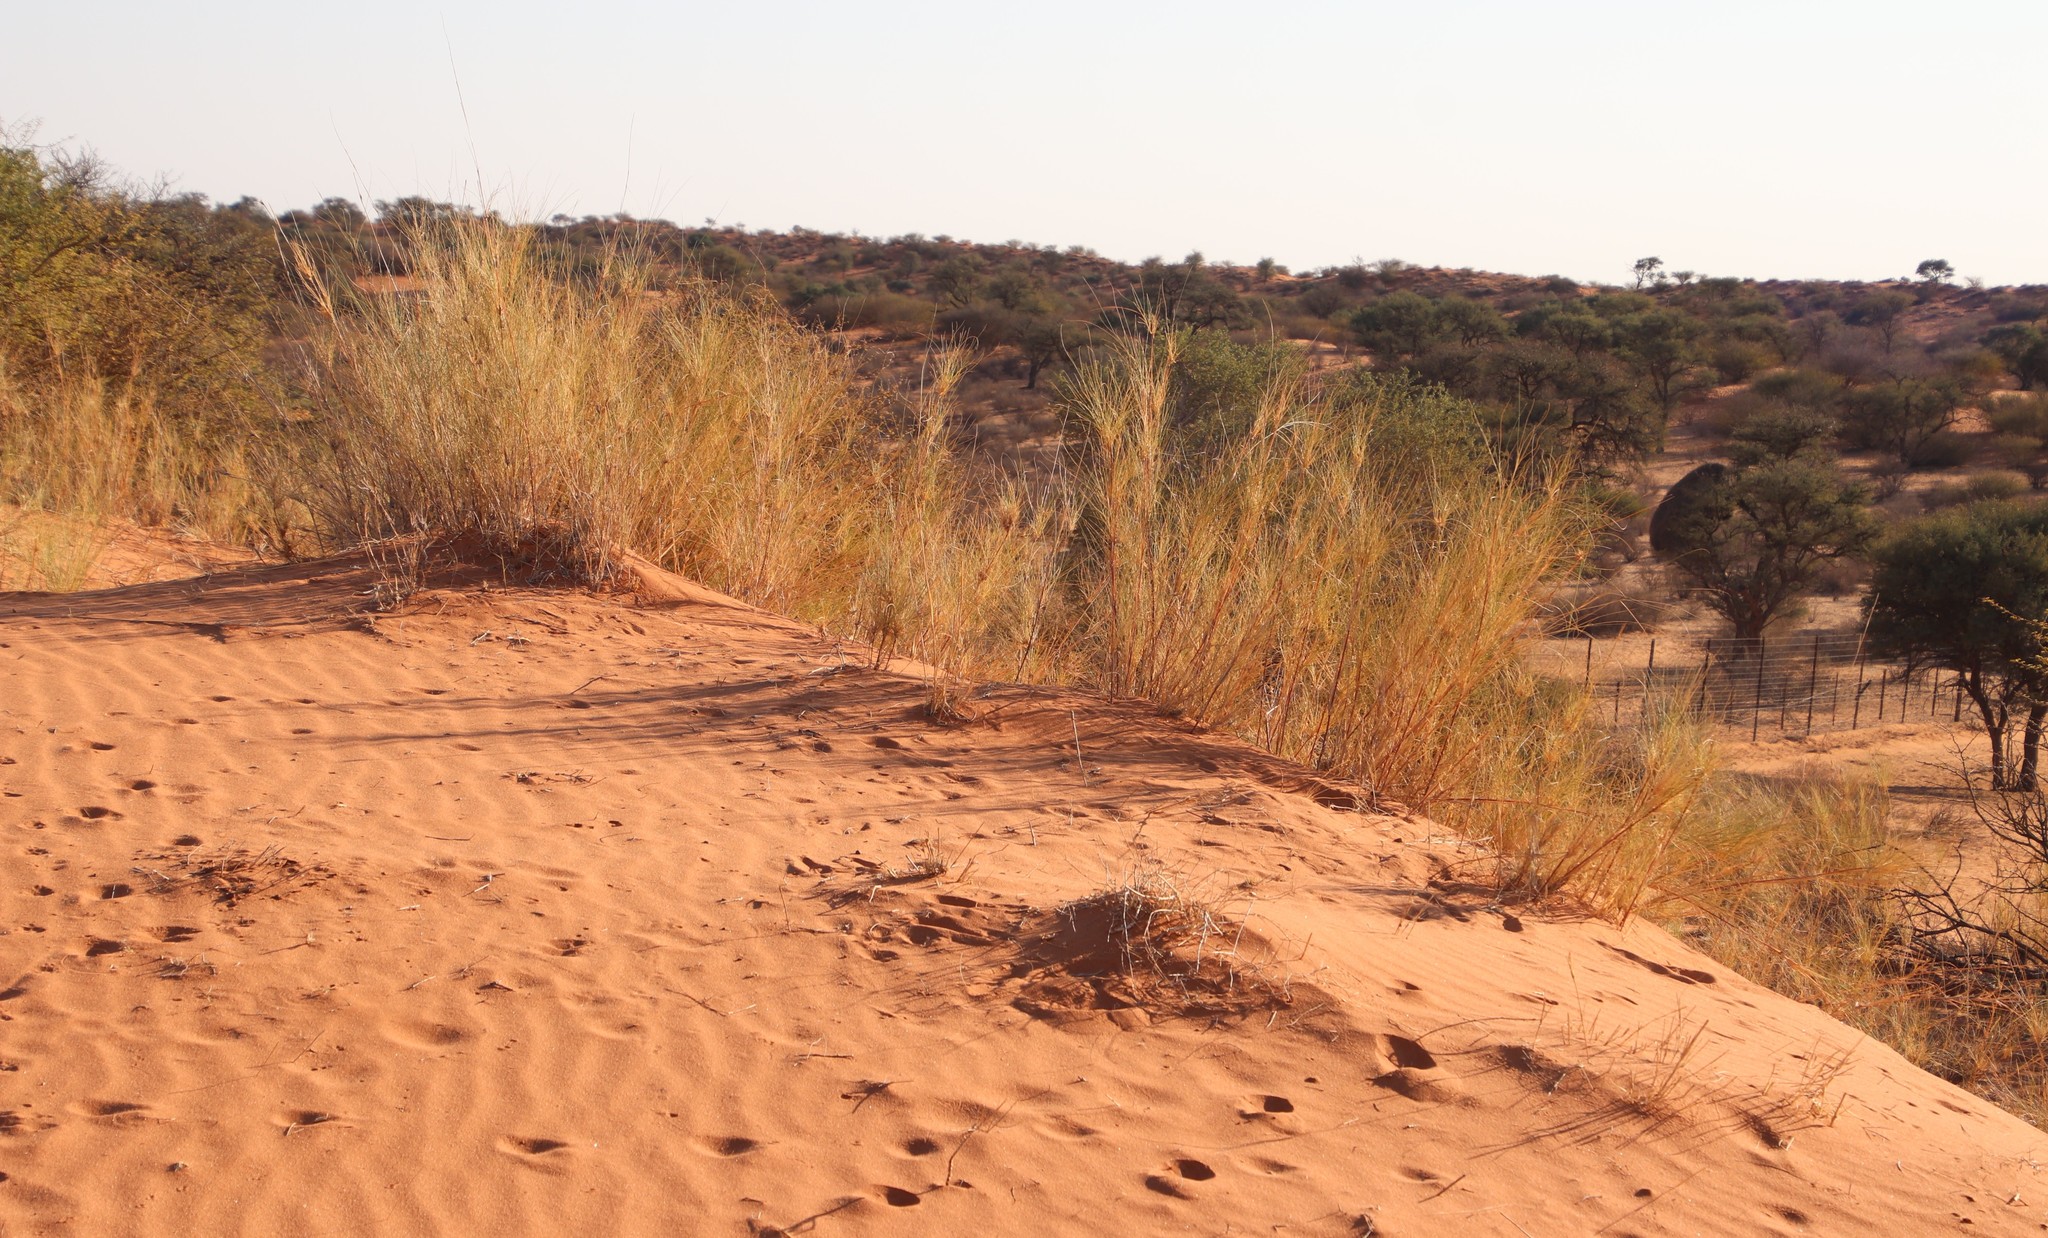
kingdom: Plantae
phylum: Tracheophyta
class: Liliopsida
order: Poales
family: Poaceae
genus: Stipagrostis
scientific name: Stipagrostis namaquensis
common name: River bushman grass
